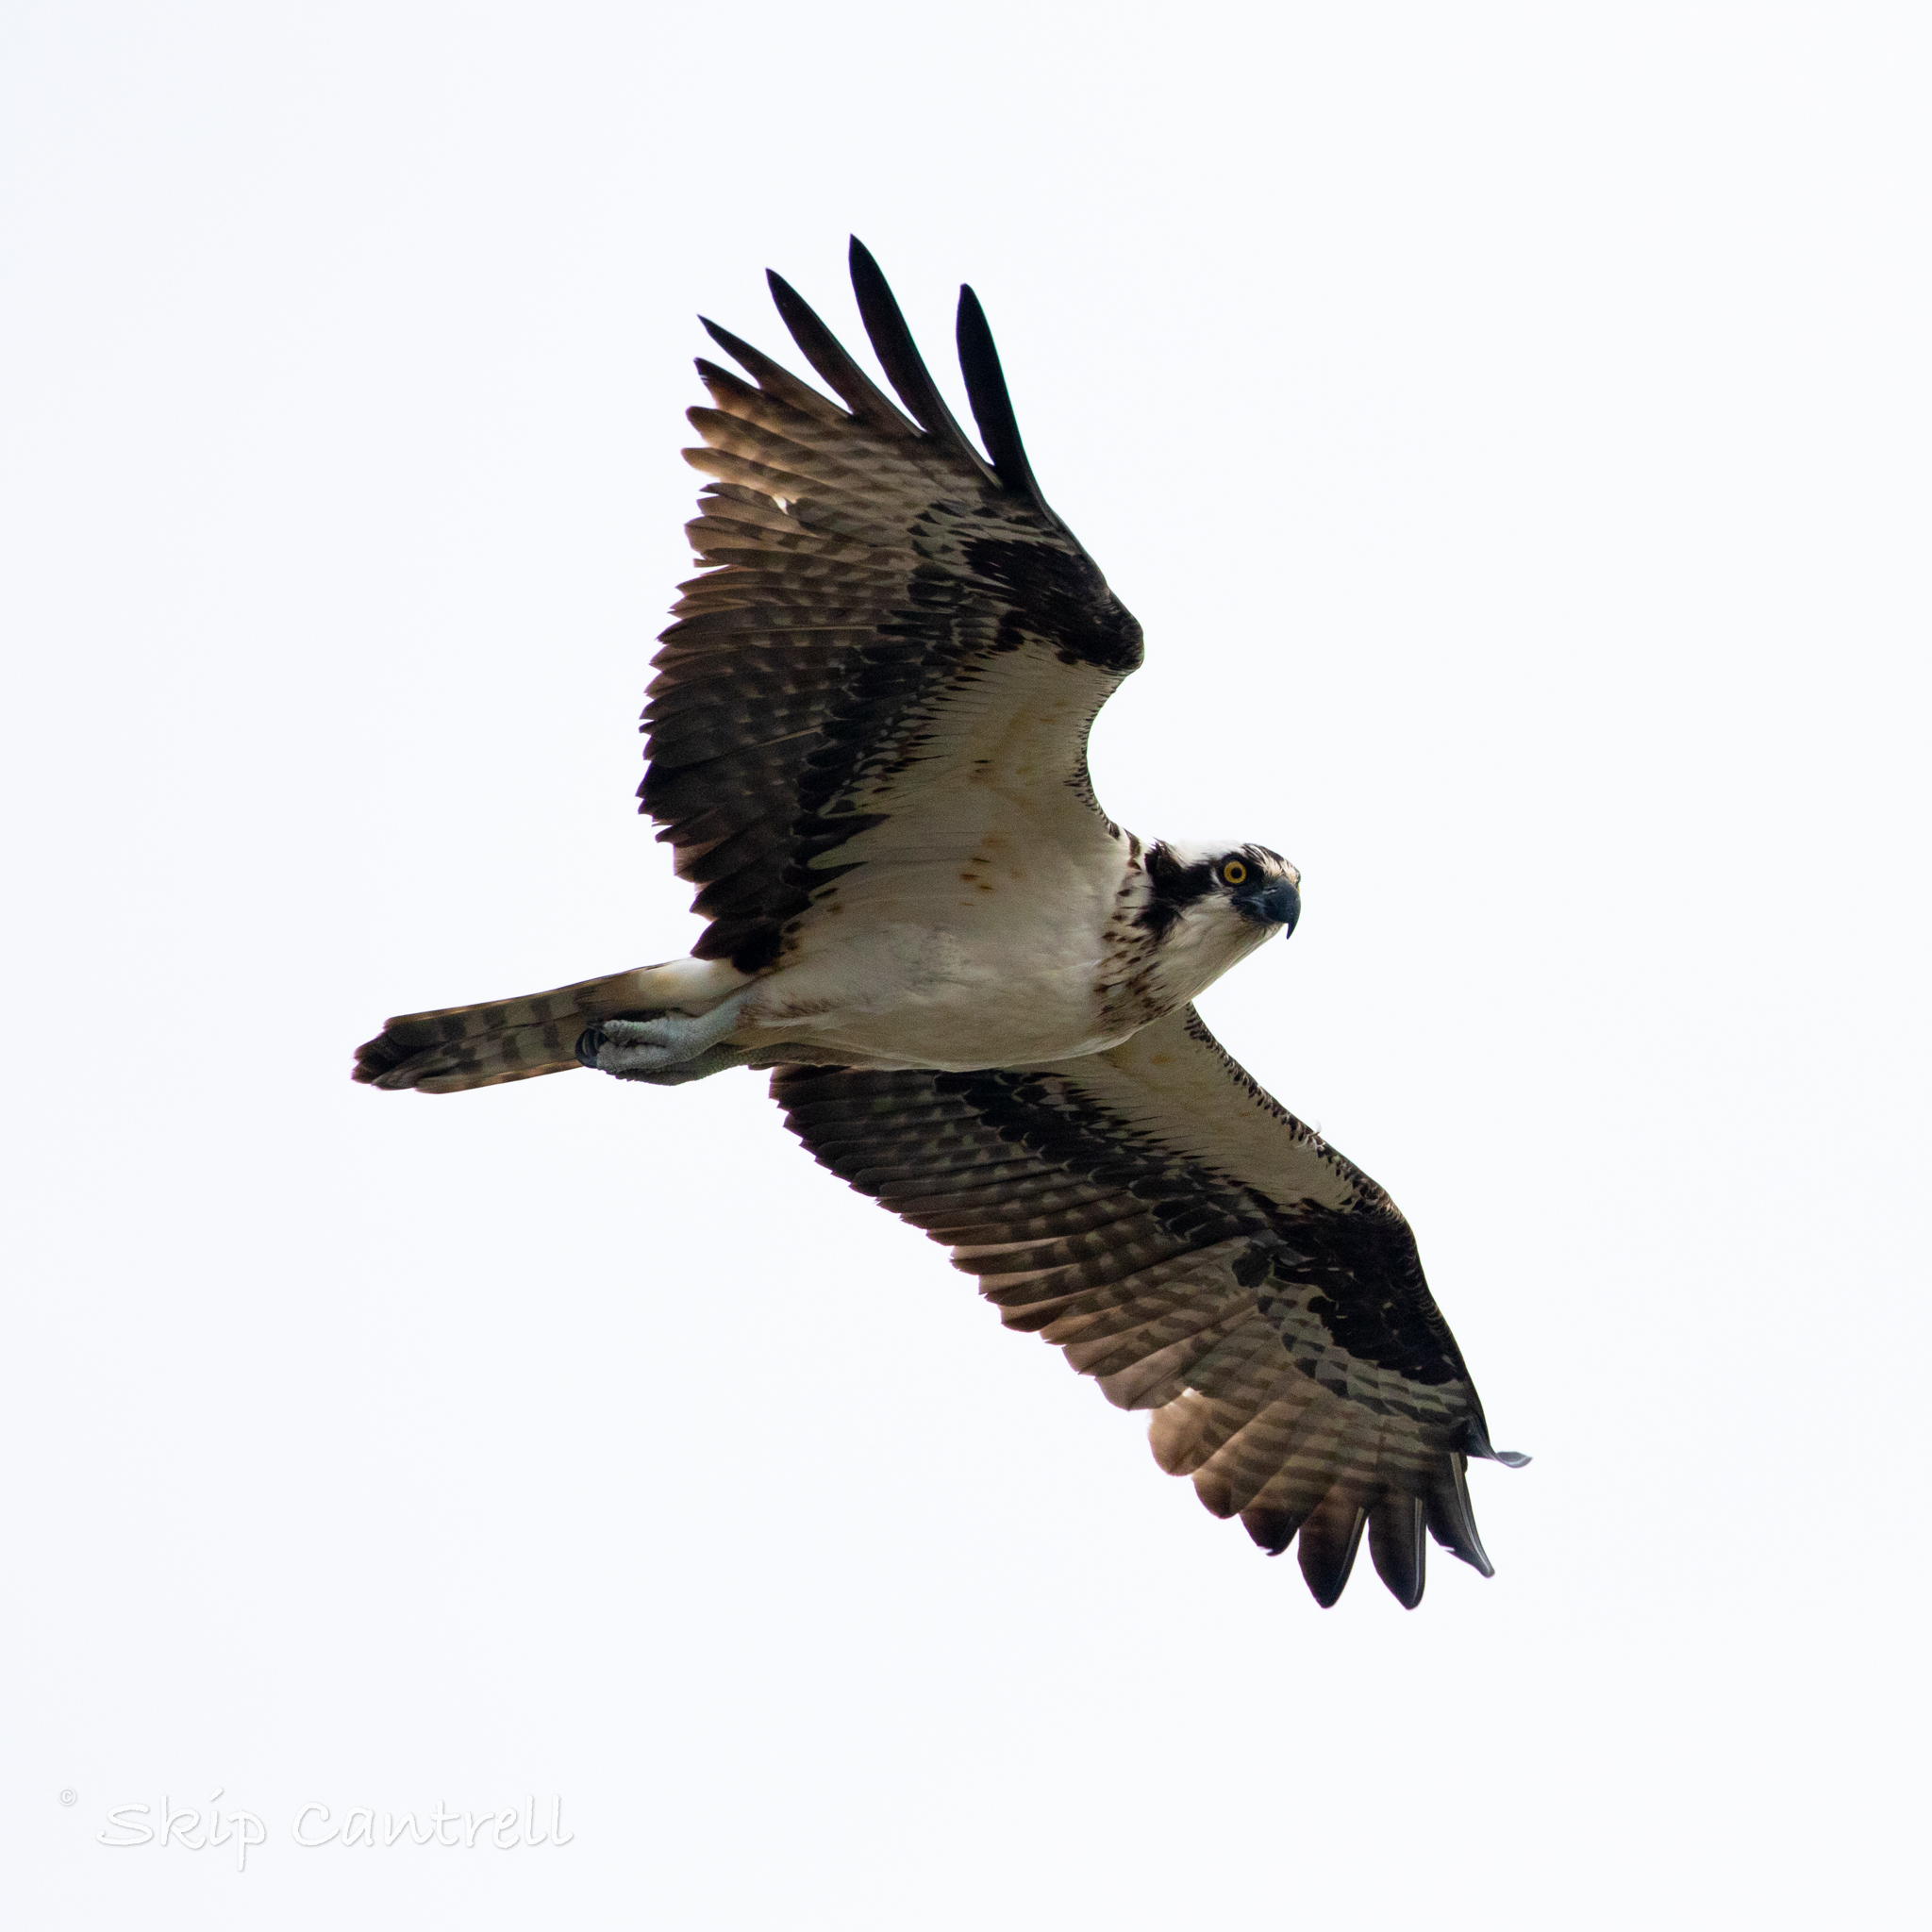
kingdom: Animalia
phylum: Chordata
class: Aves
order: Accipitriformes
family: Pandionidae
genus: Pandion
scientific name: Pandion haliaetus
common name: Osprey
